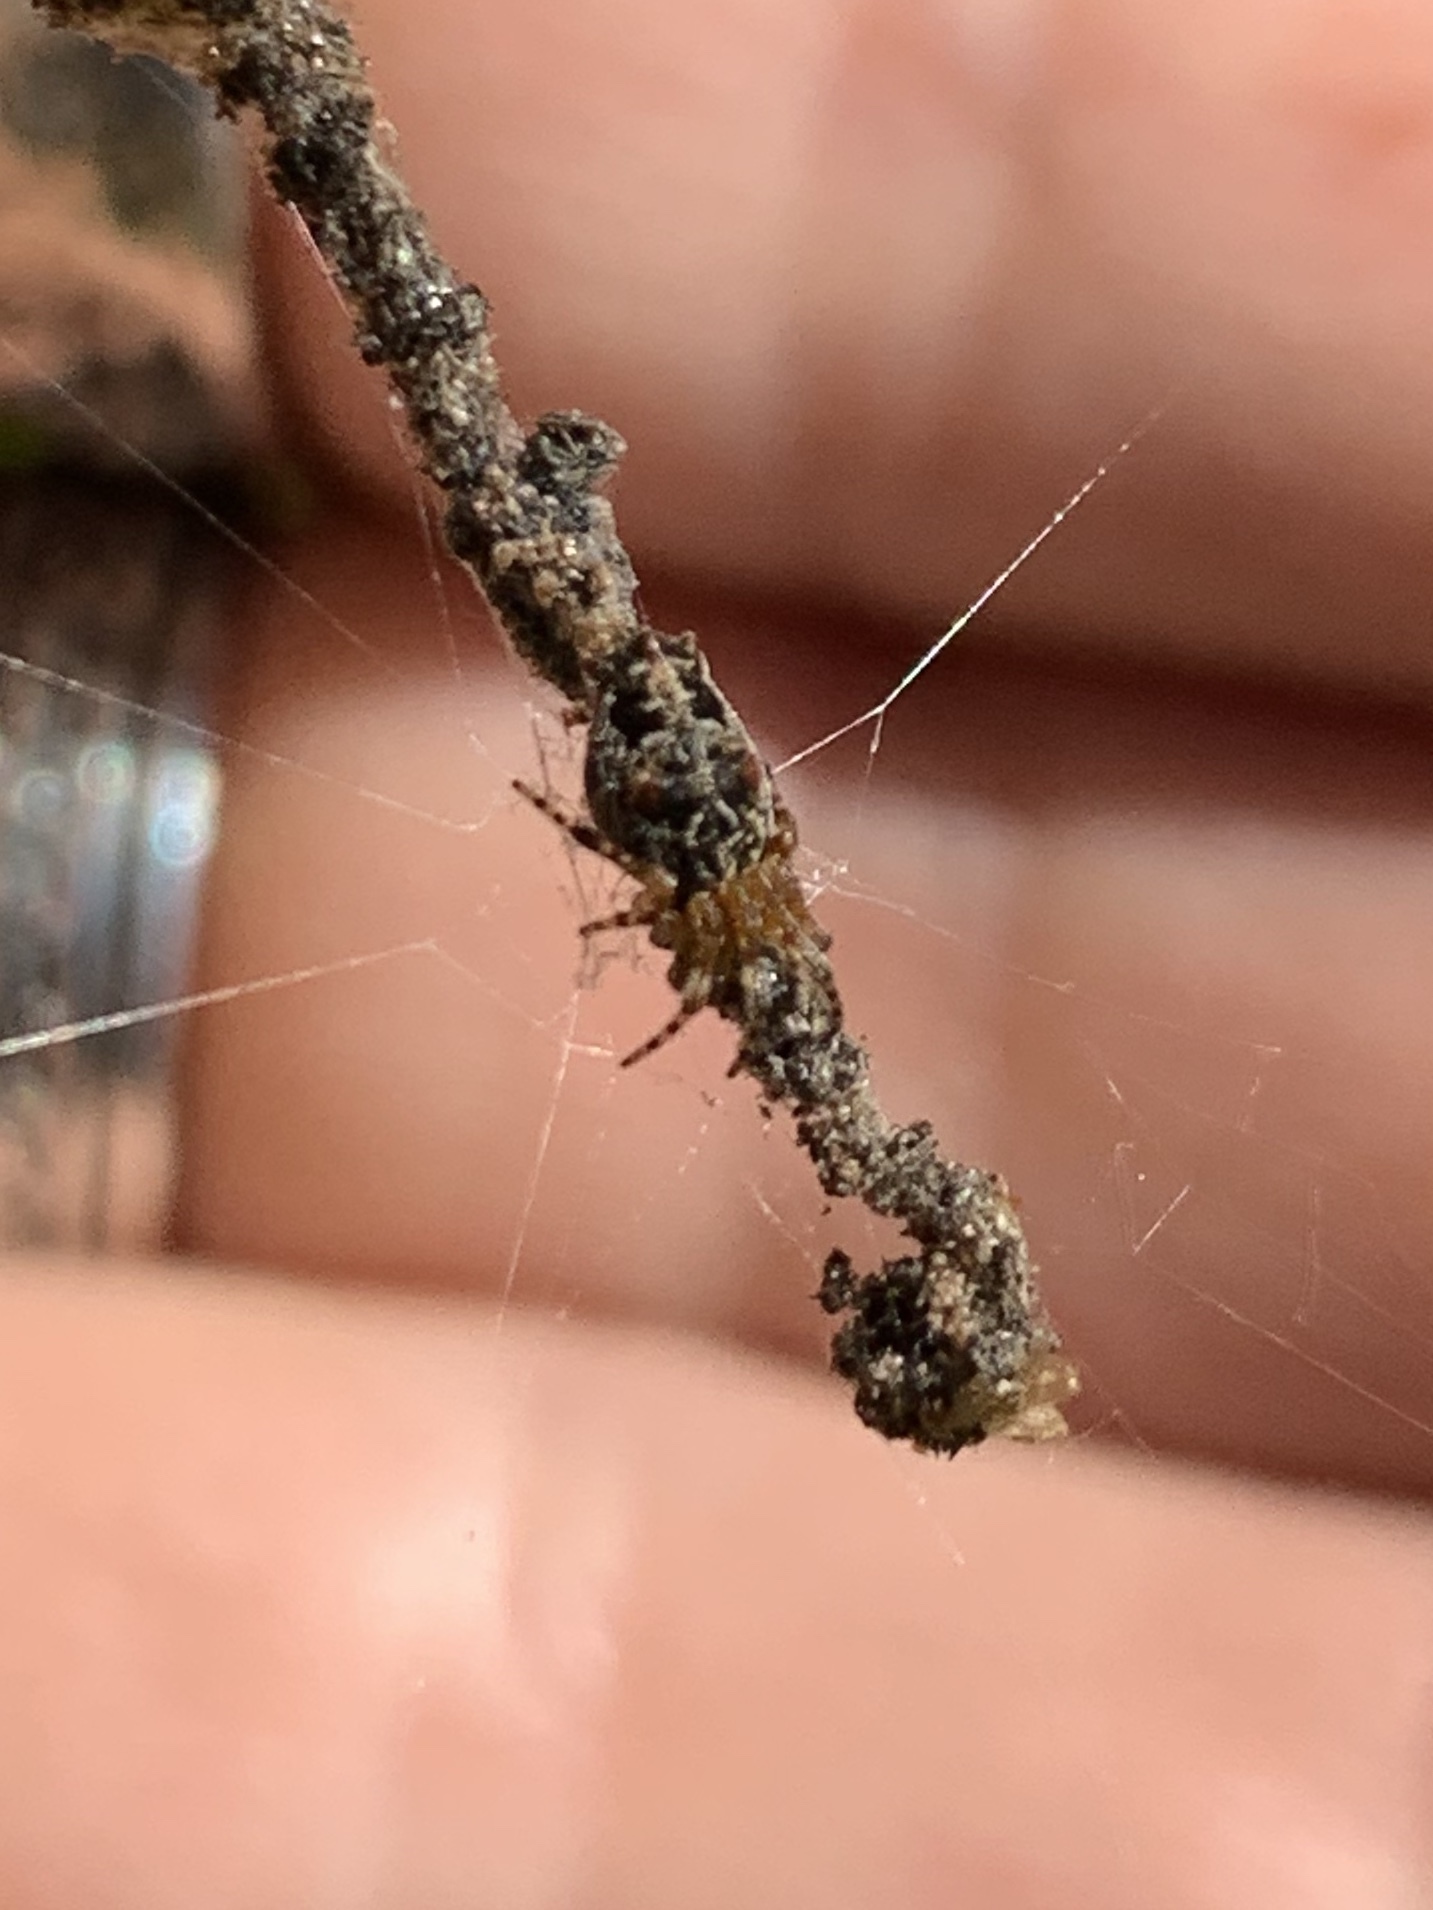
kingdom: Animalia
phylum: Arthropoda
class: Arachnida
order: Araneae
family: Araneidae
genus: Cyclosa
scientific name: Cyclosa walckenaeri
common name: Orb weavers
